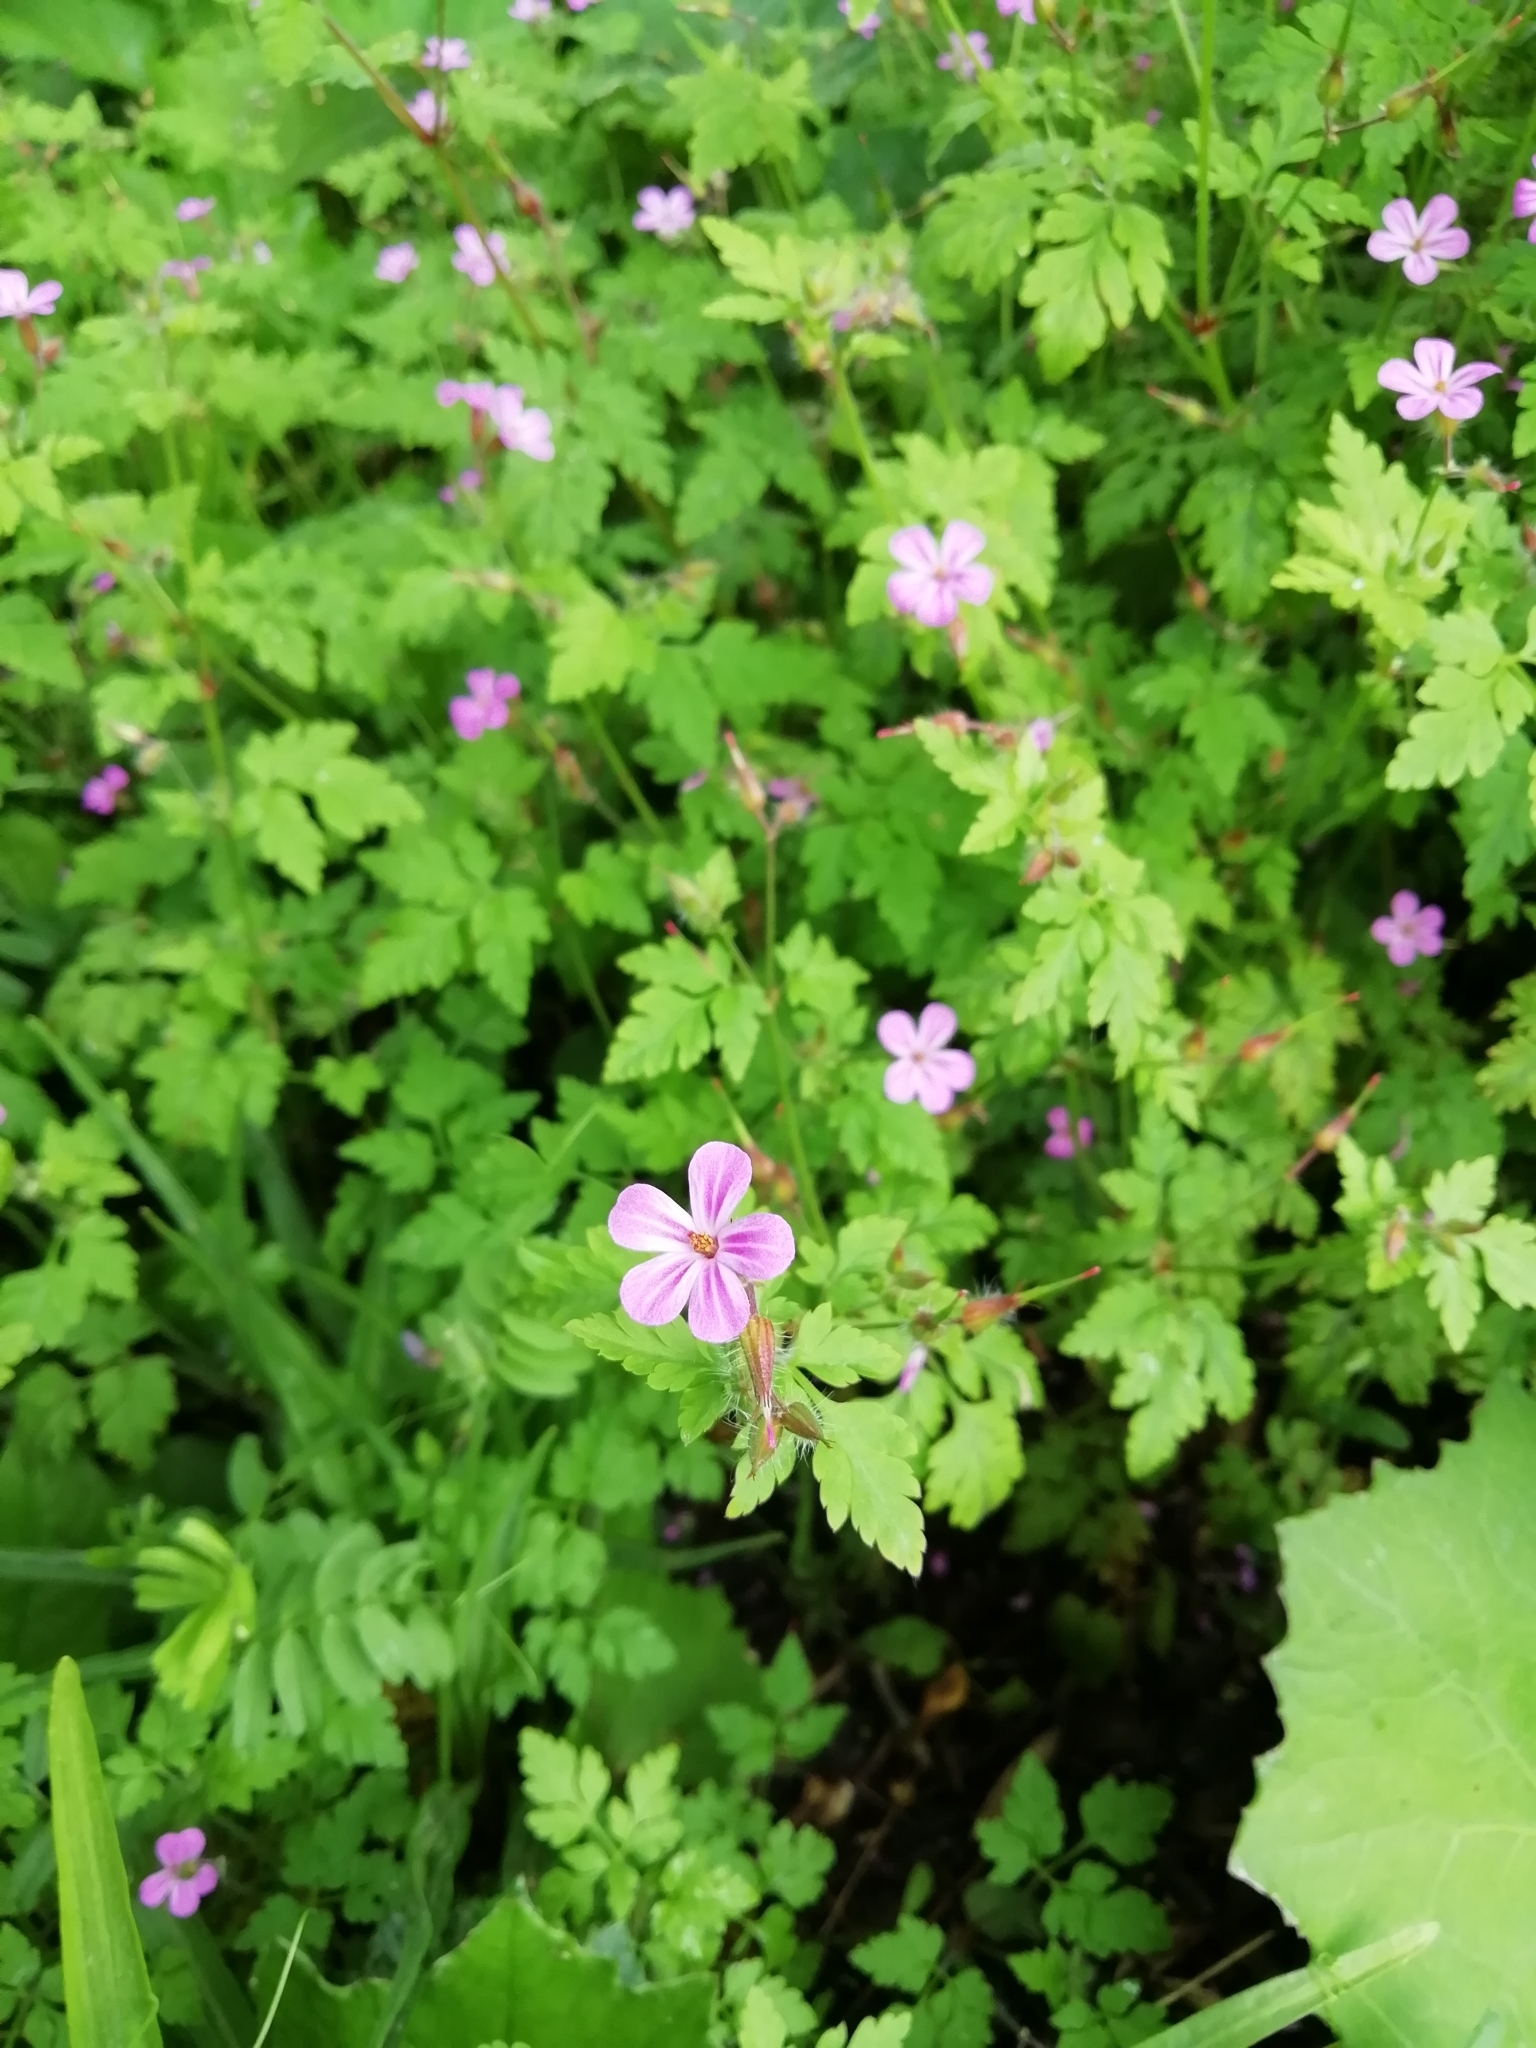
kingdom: Plantae
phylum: Tracheophyta
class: Magnoliopsida
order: Geraniales
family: Geraniaceae
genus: Geranium
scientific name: Geranium robertianum
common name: Herb-robert
